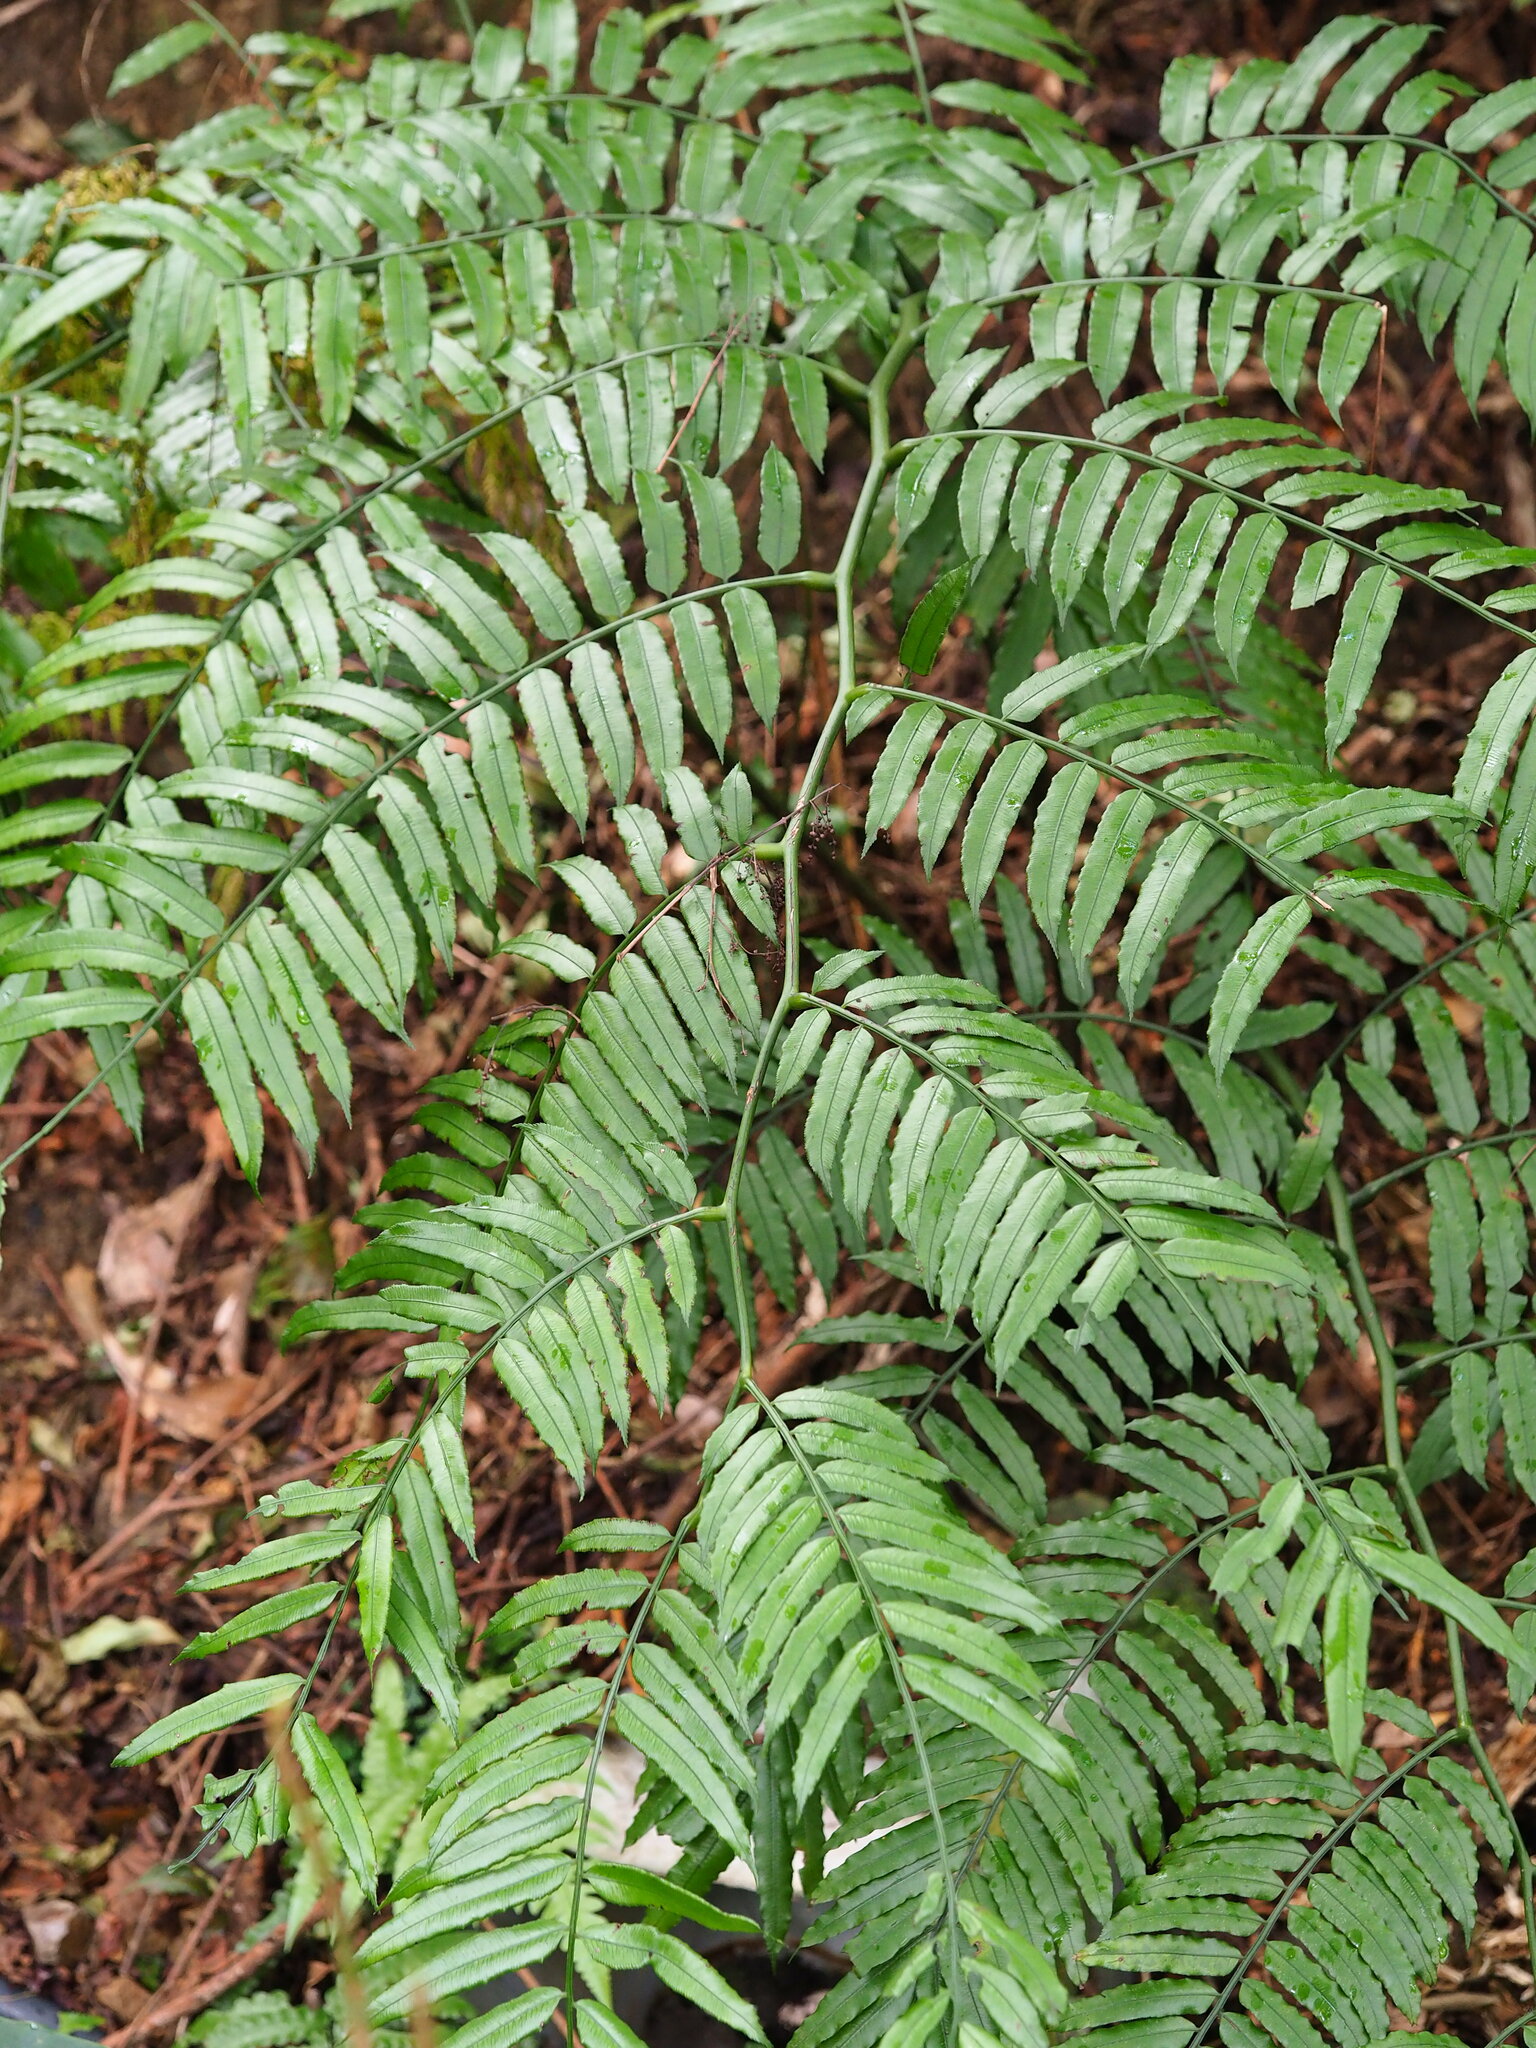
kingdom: Plantae
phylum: Tracheophyta
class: Polypodiopsida
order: Marattiales
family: Marattiaceae
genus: Angiopteris
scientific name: Angiopteris lygodiifolia
